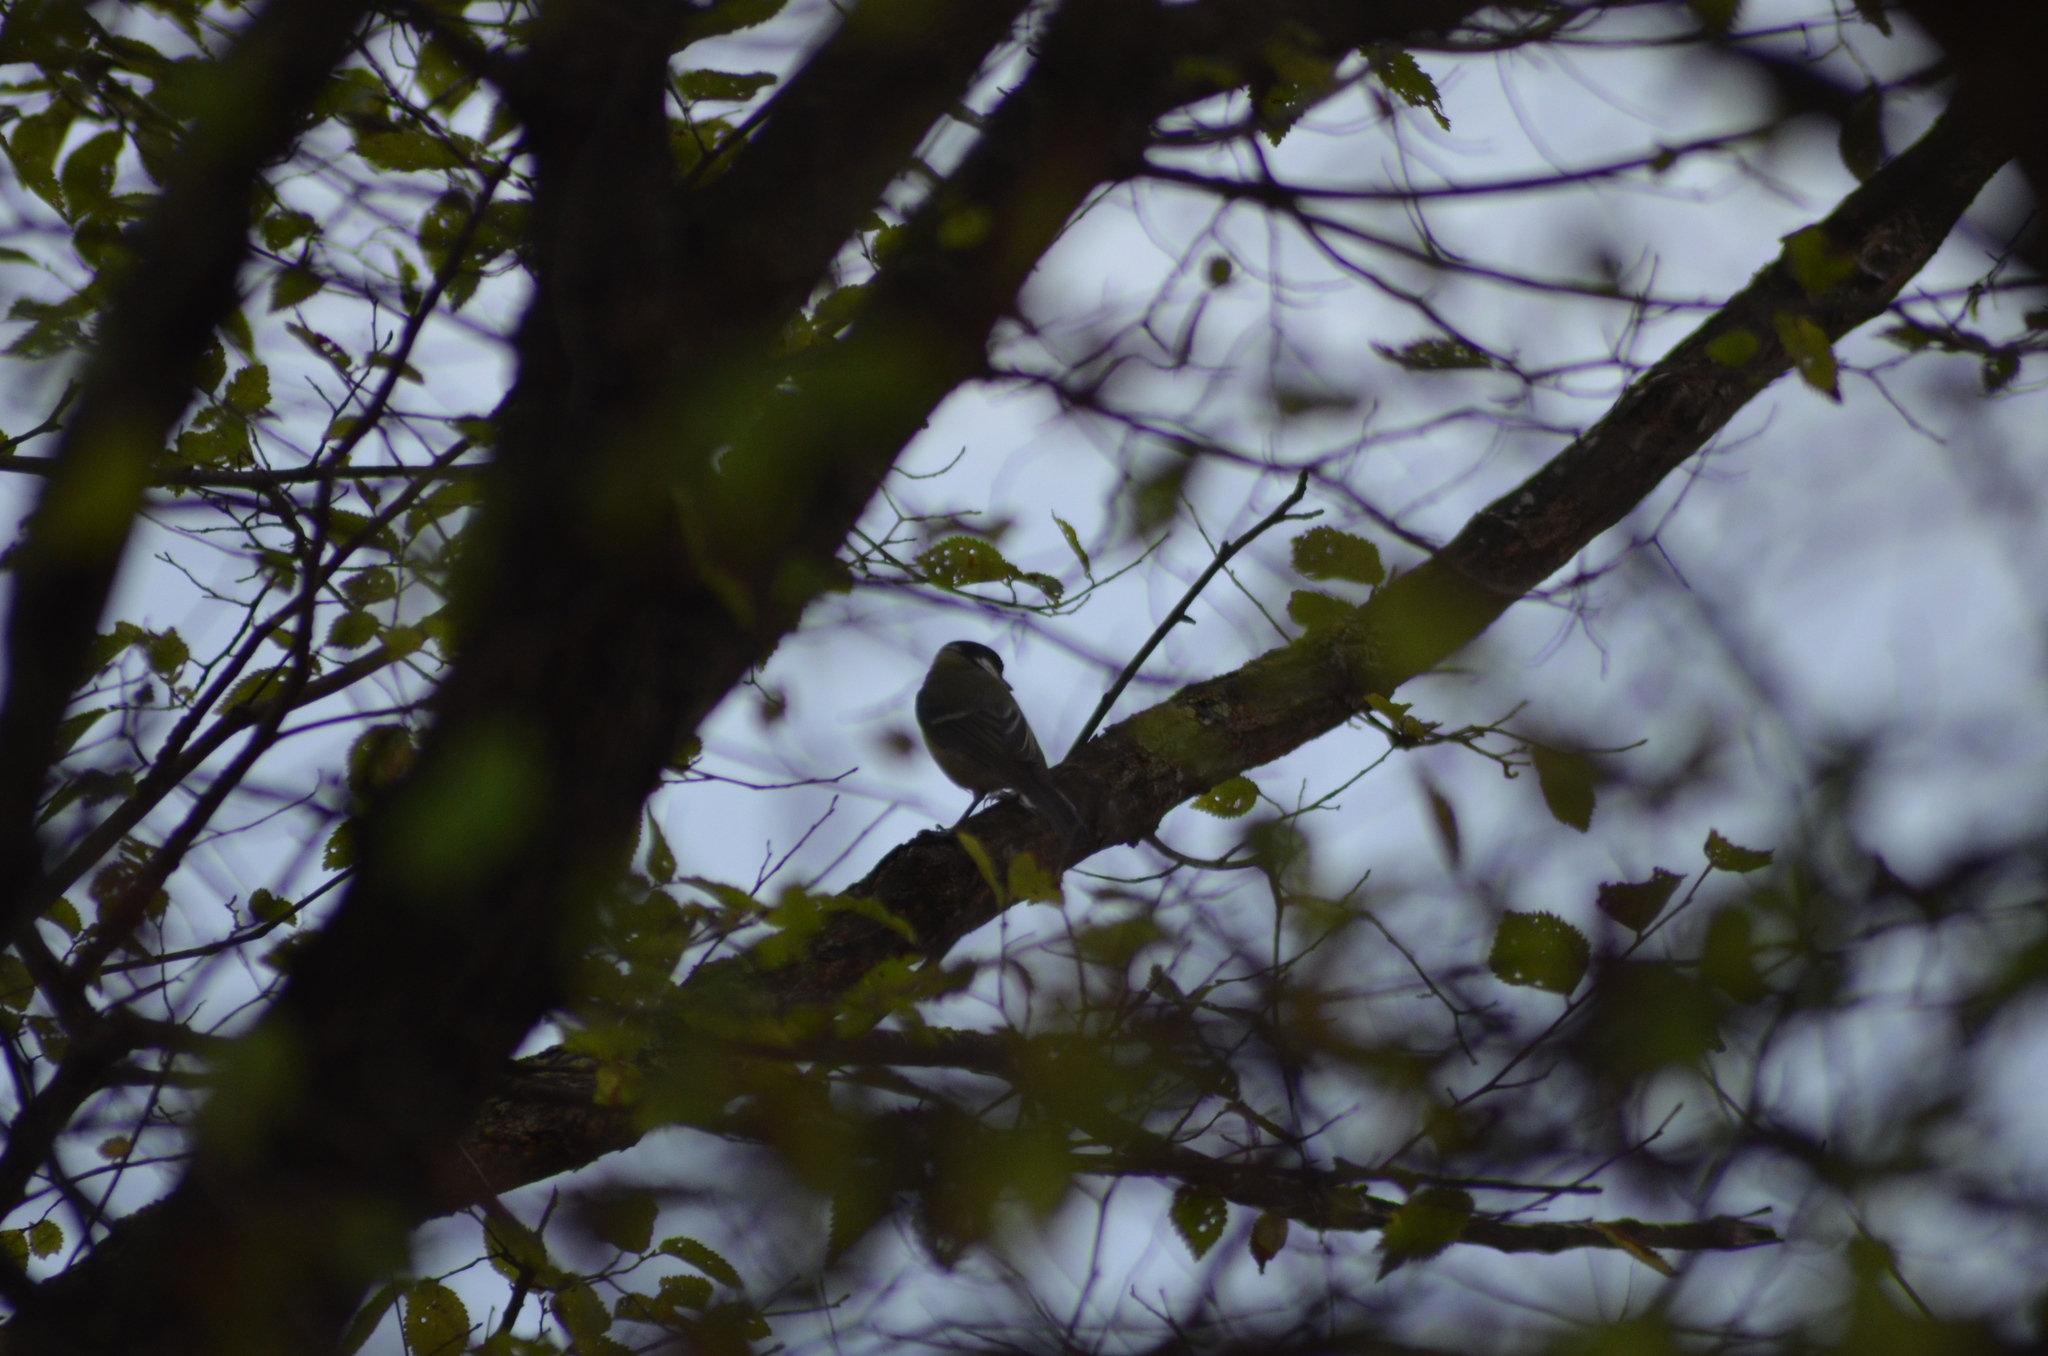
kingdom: Animalia
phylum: Chordata
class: Aves
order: Passeriformes
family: Paridae
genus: Parus
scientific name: Parus major
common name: Great tit
